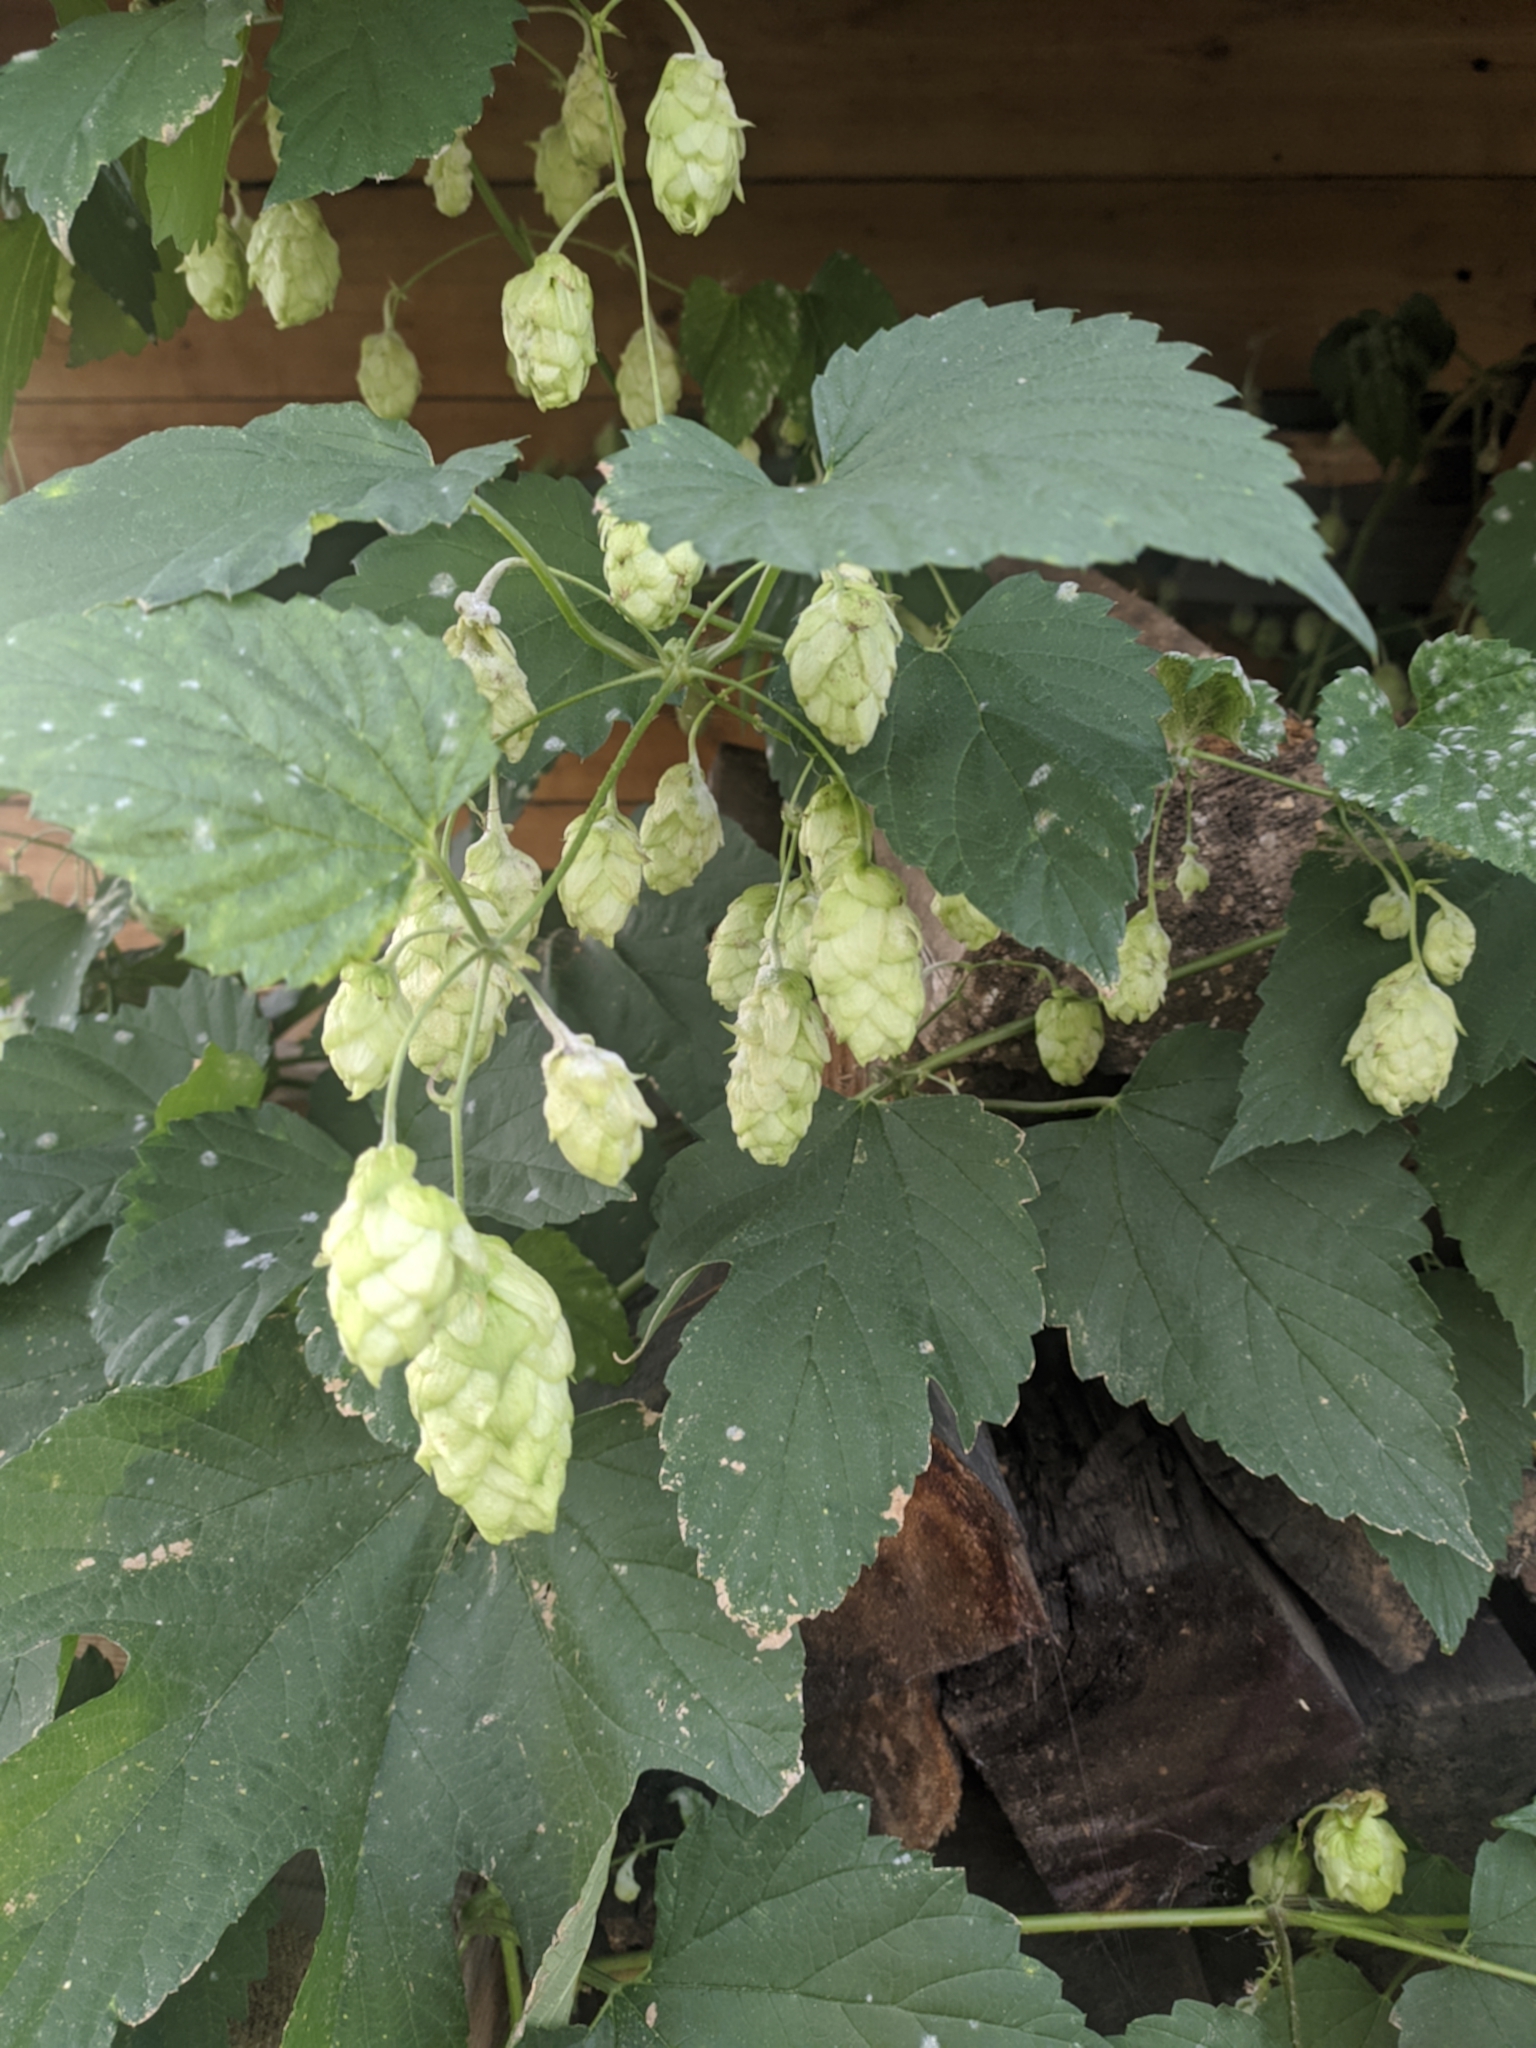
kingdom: Plantae
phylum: Tracheophyta
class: Magnoliopsida
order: Rosales
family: Cannabaceae
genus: Humulus
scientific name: Humulus lupulus
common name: Hop
